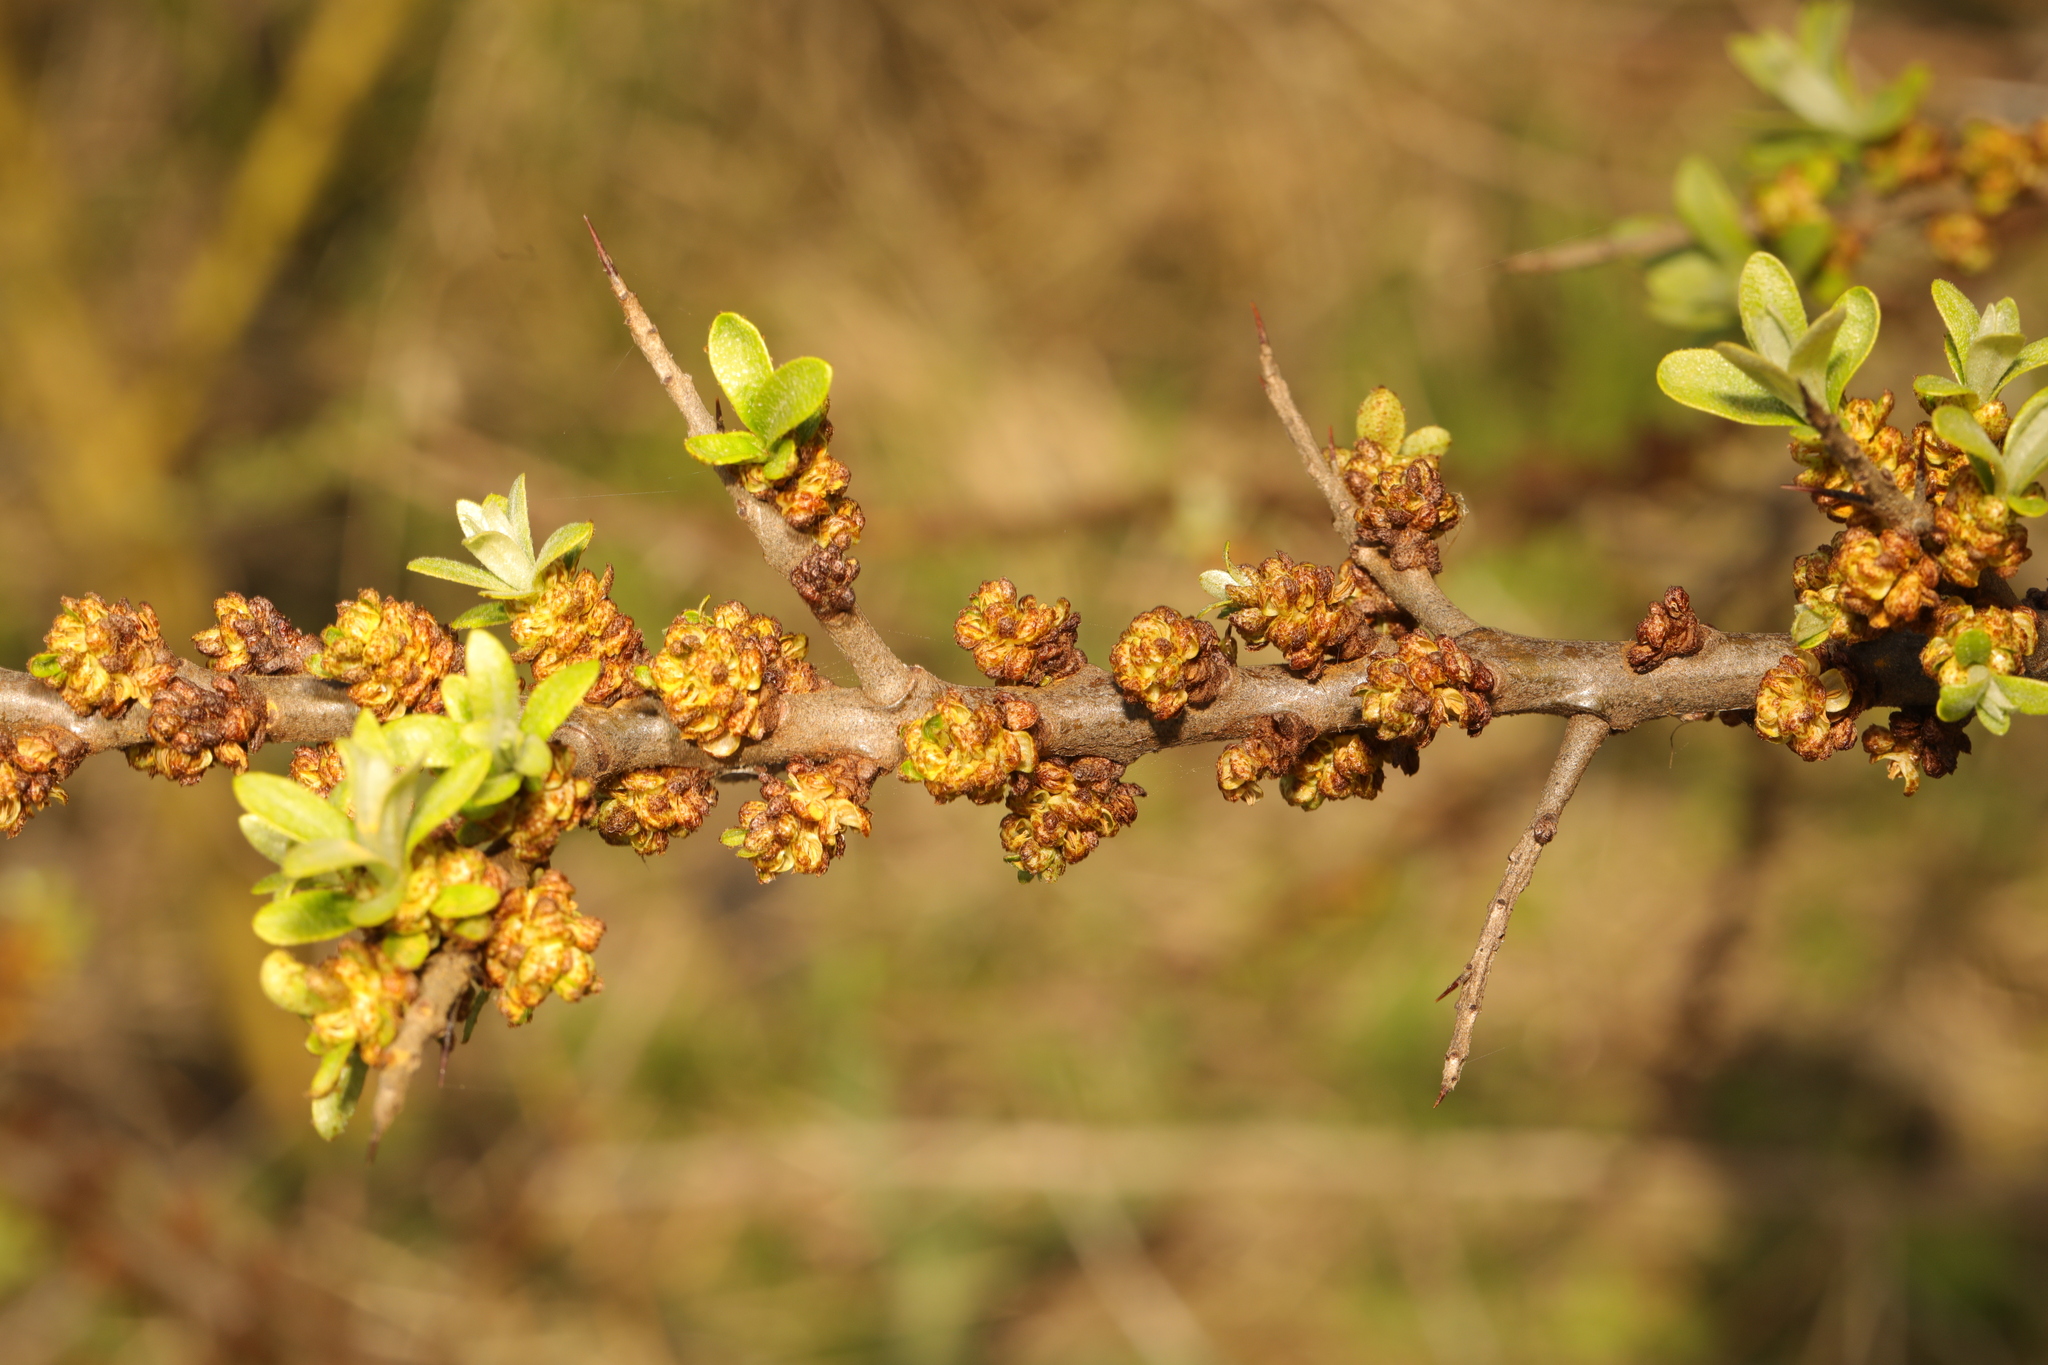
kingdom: Plantae
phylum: Tracheophyta
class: Magnoliopsida
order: Rosales
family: Elaeagnaceae
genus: Hippophae
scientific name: Hippophae rhamnoides
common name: Sea-buckthorn
